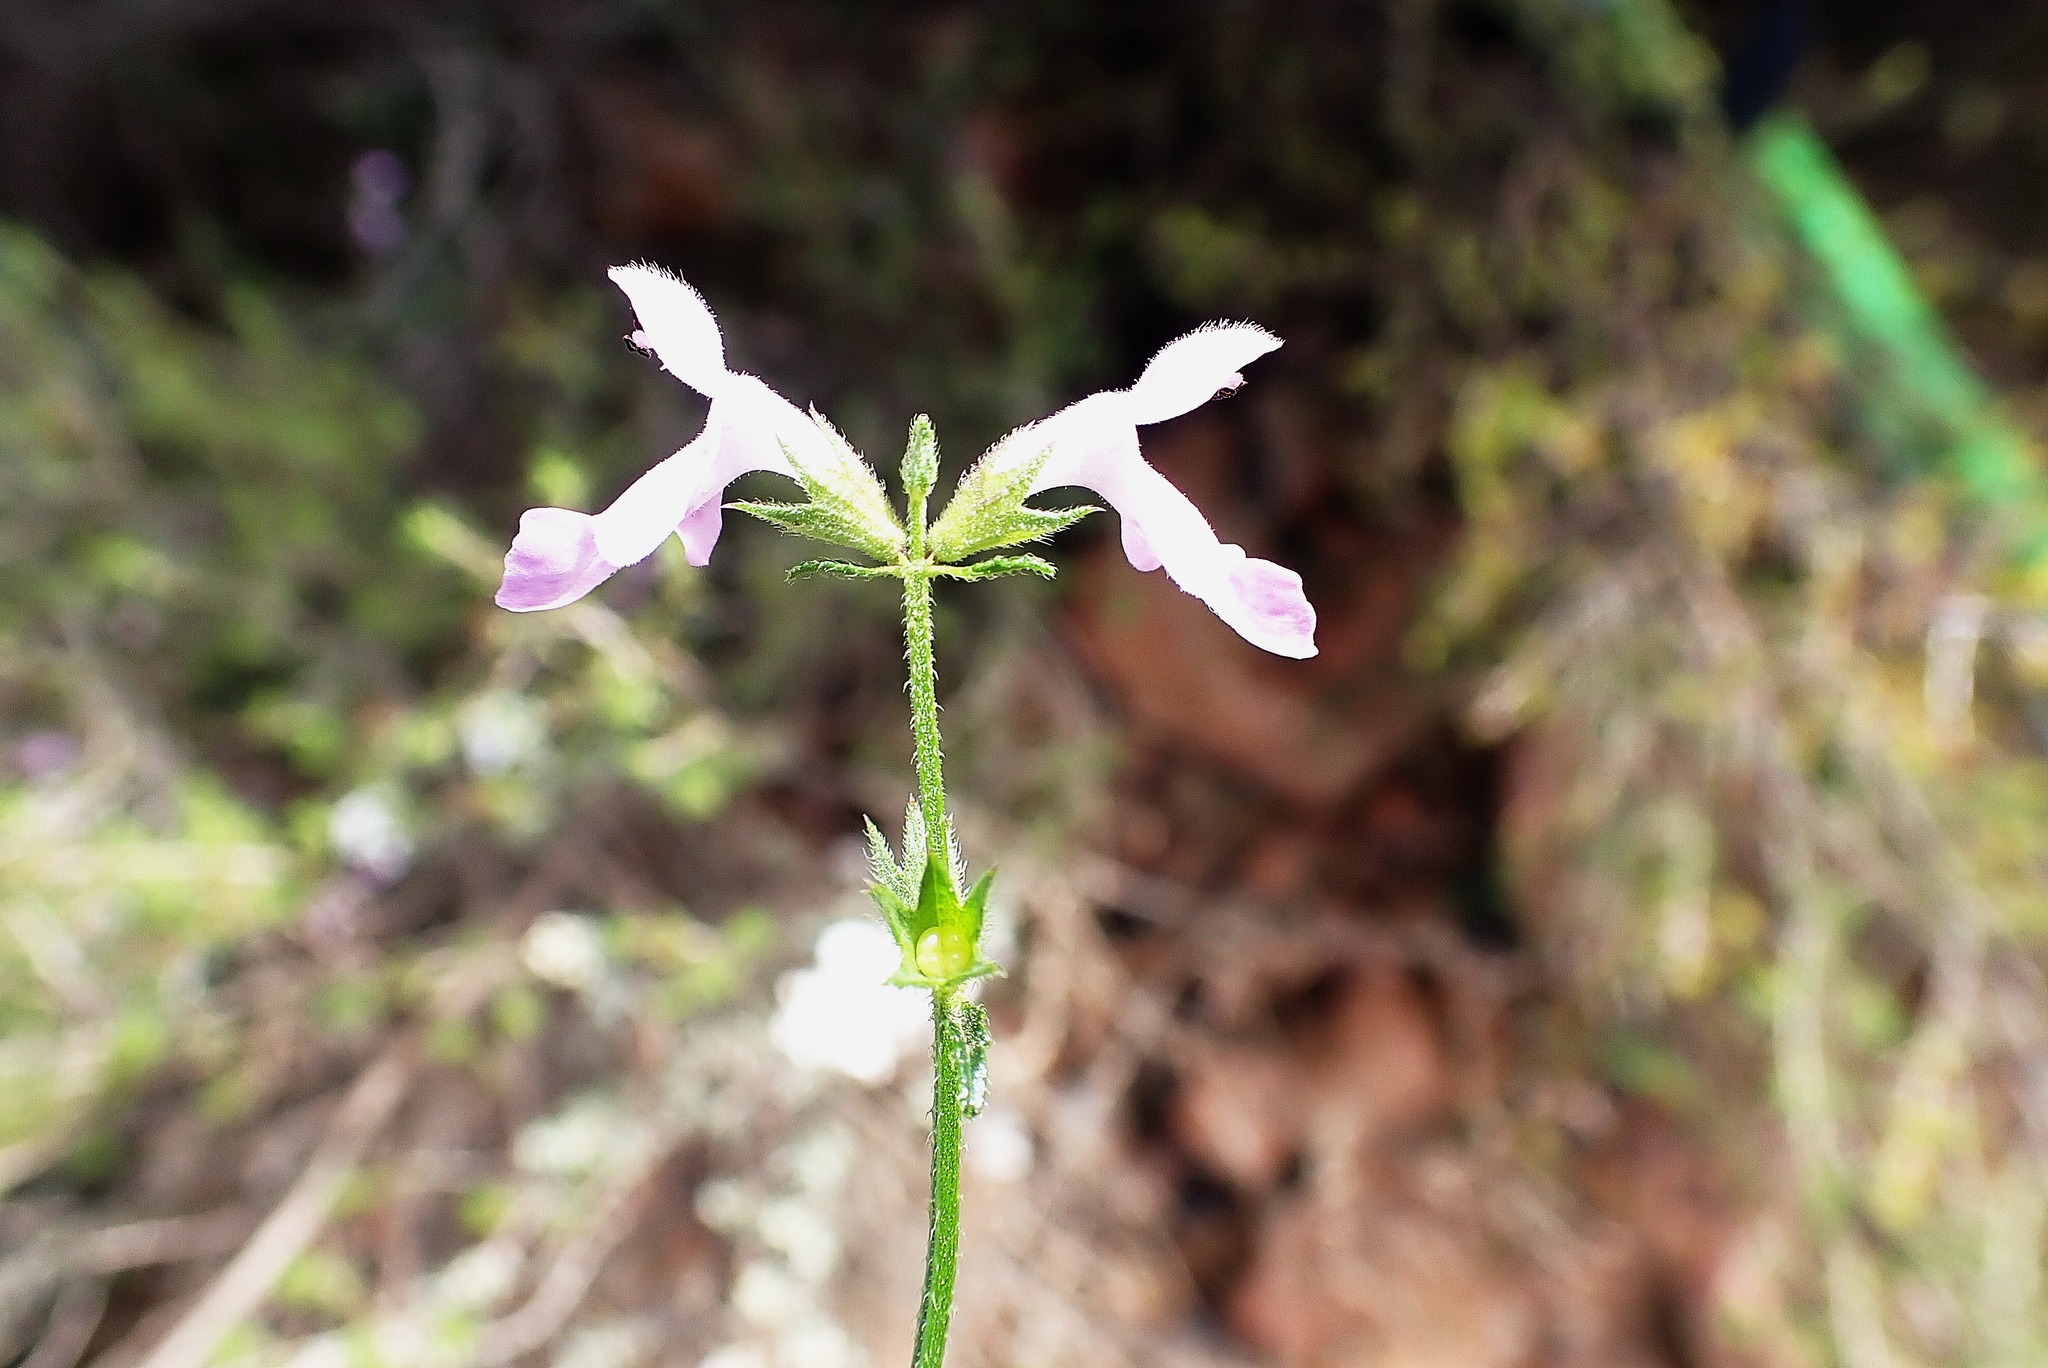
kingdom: Plantae
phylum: Tracheophyta
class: Magnoliopsida
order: Lamiales
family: Lamiaceae
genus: Stachys
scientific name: Stachys sublobata
